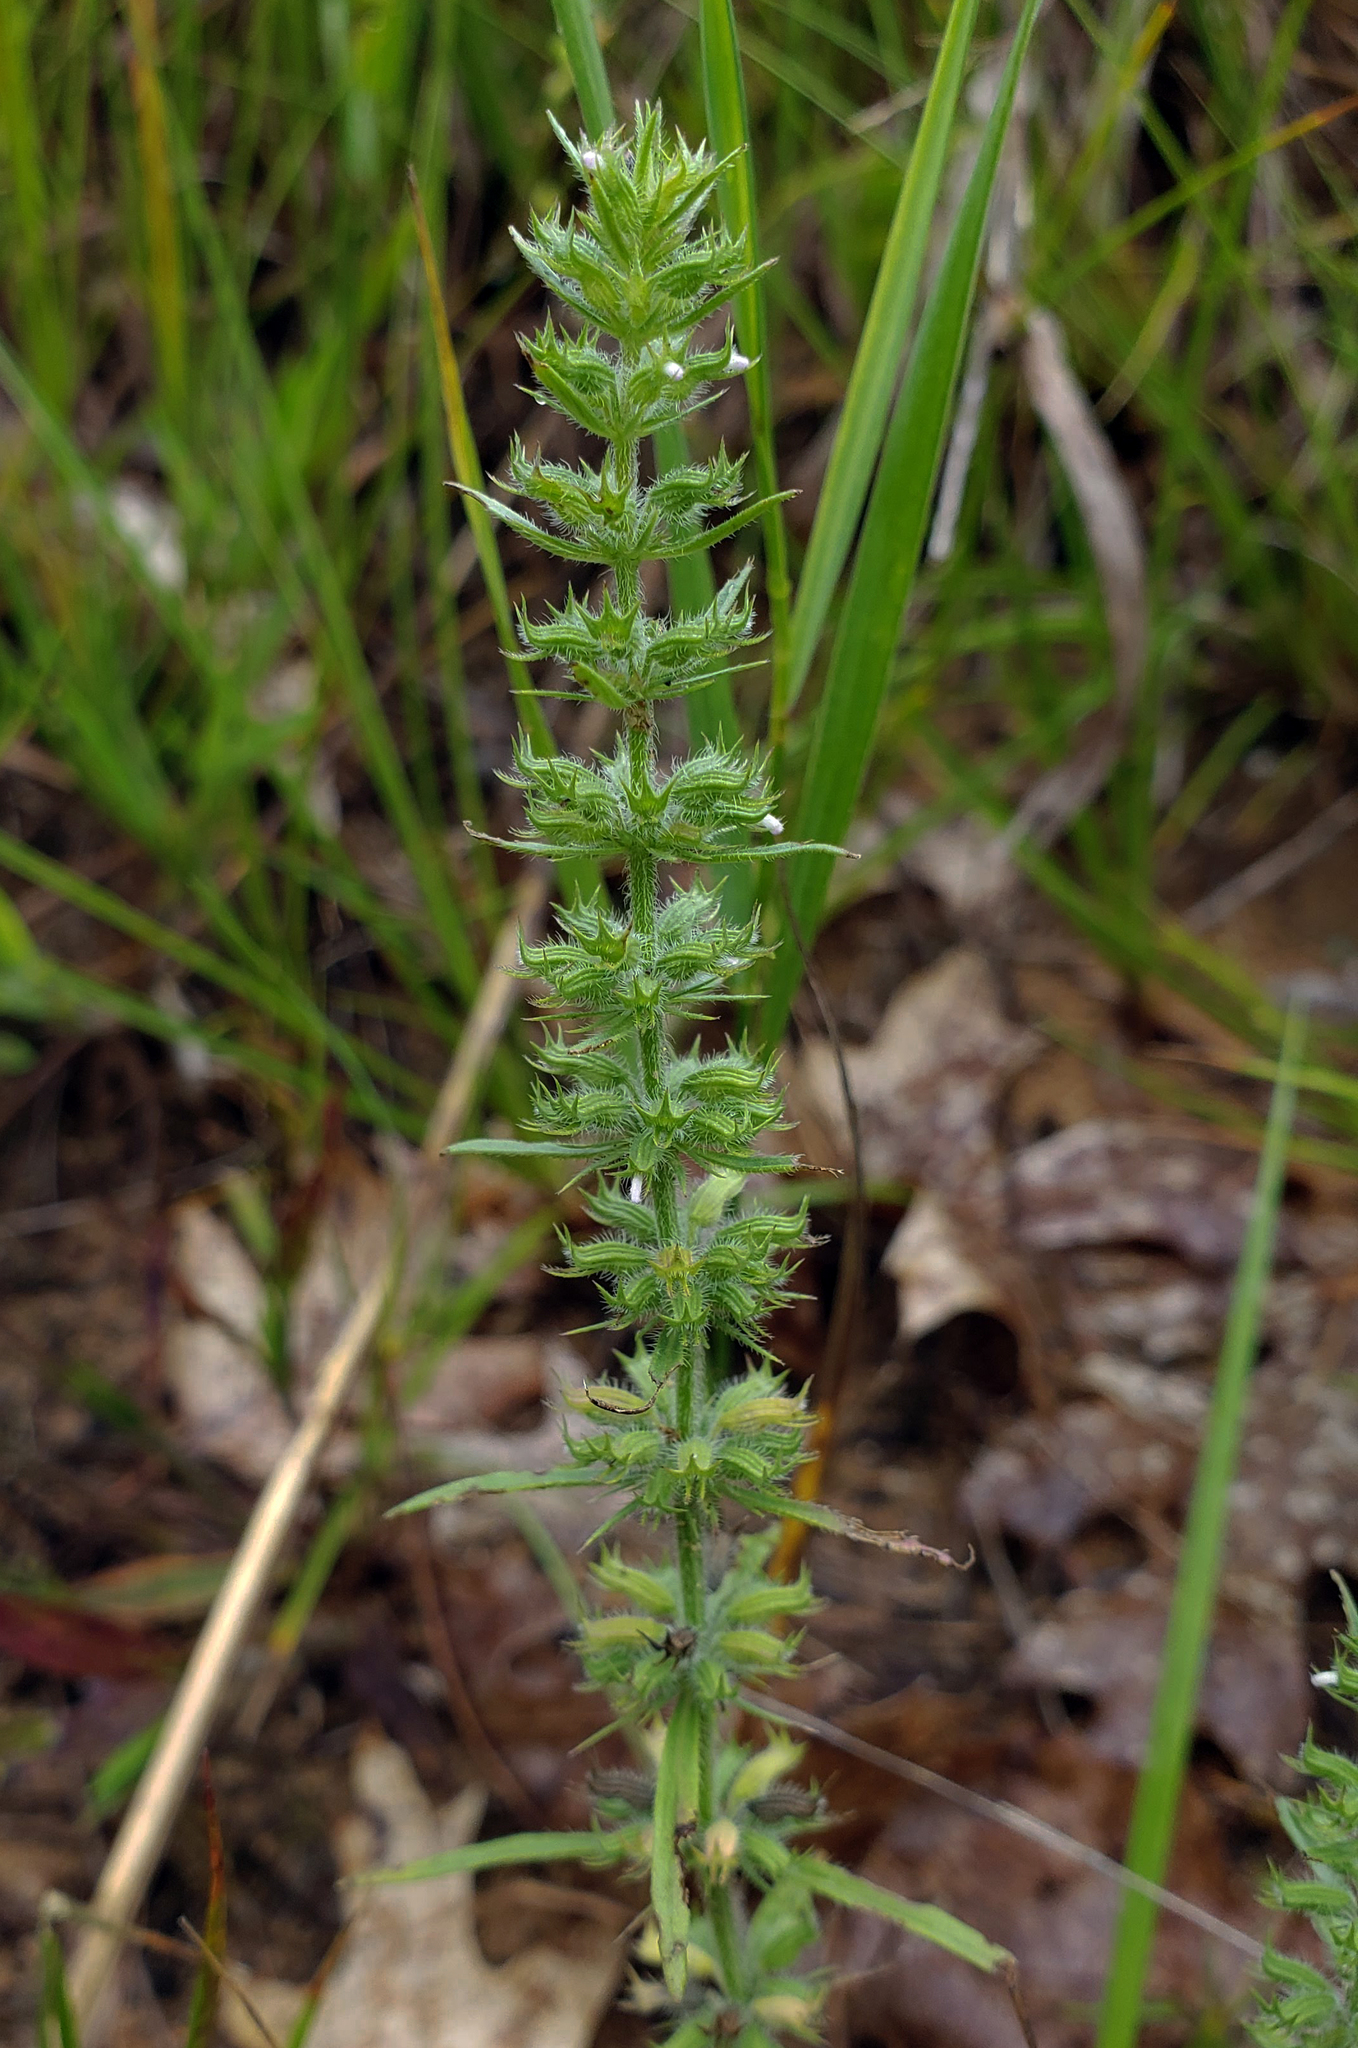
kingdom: Plantae
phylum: Tracheophyta
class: Magnoliopsida
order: Lamiales
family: Lamiaceae
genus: Hedeoma
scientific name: Hedeoma hispida
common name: Mock pennyroyal
